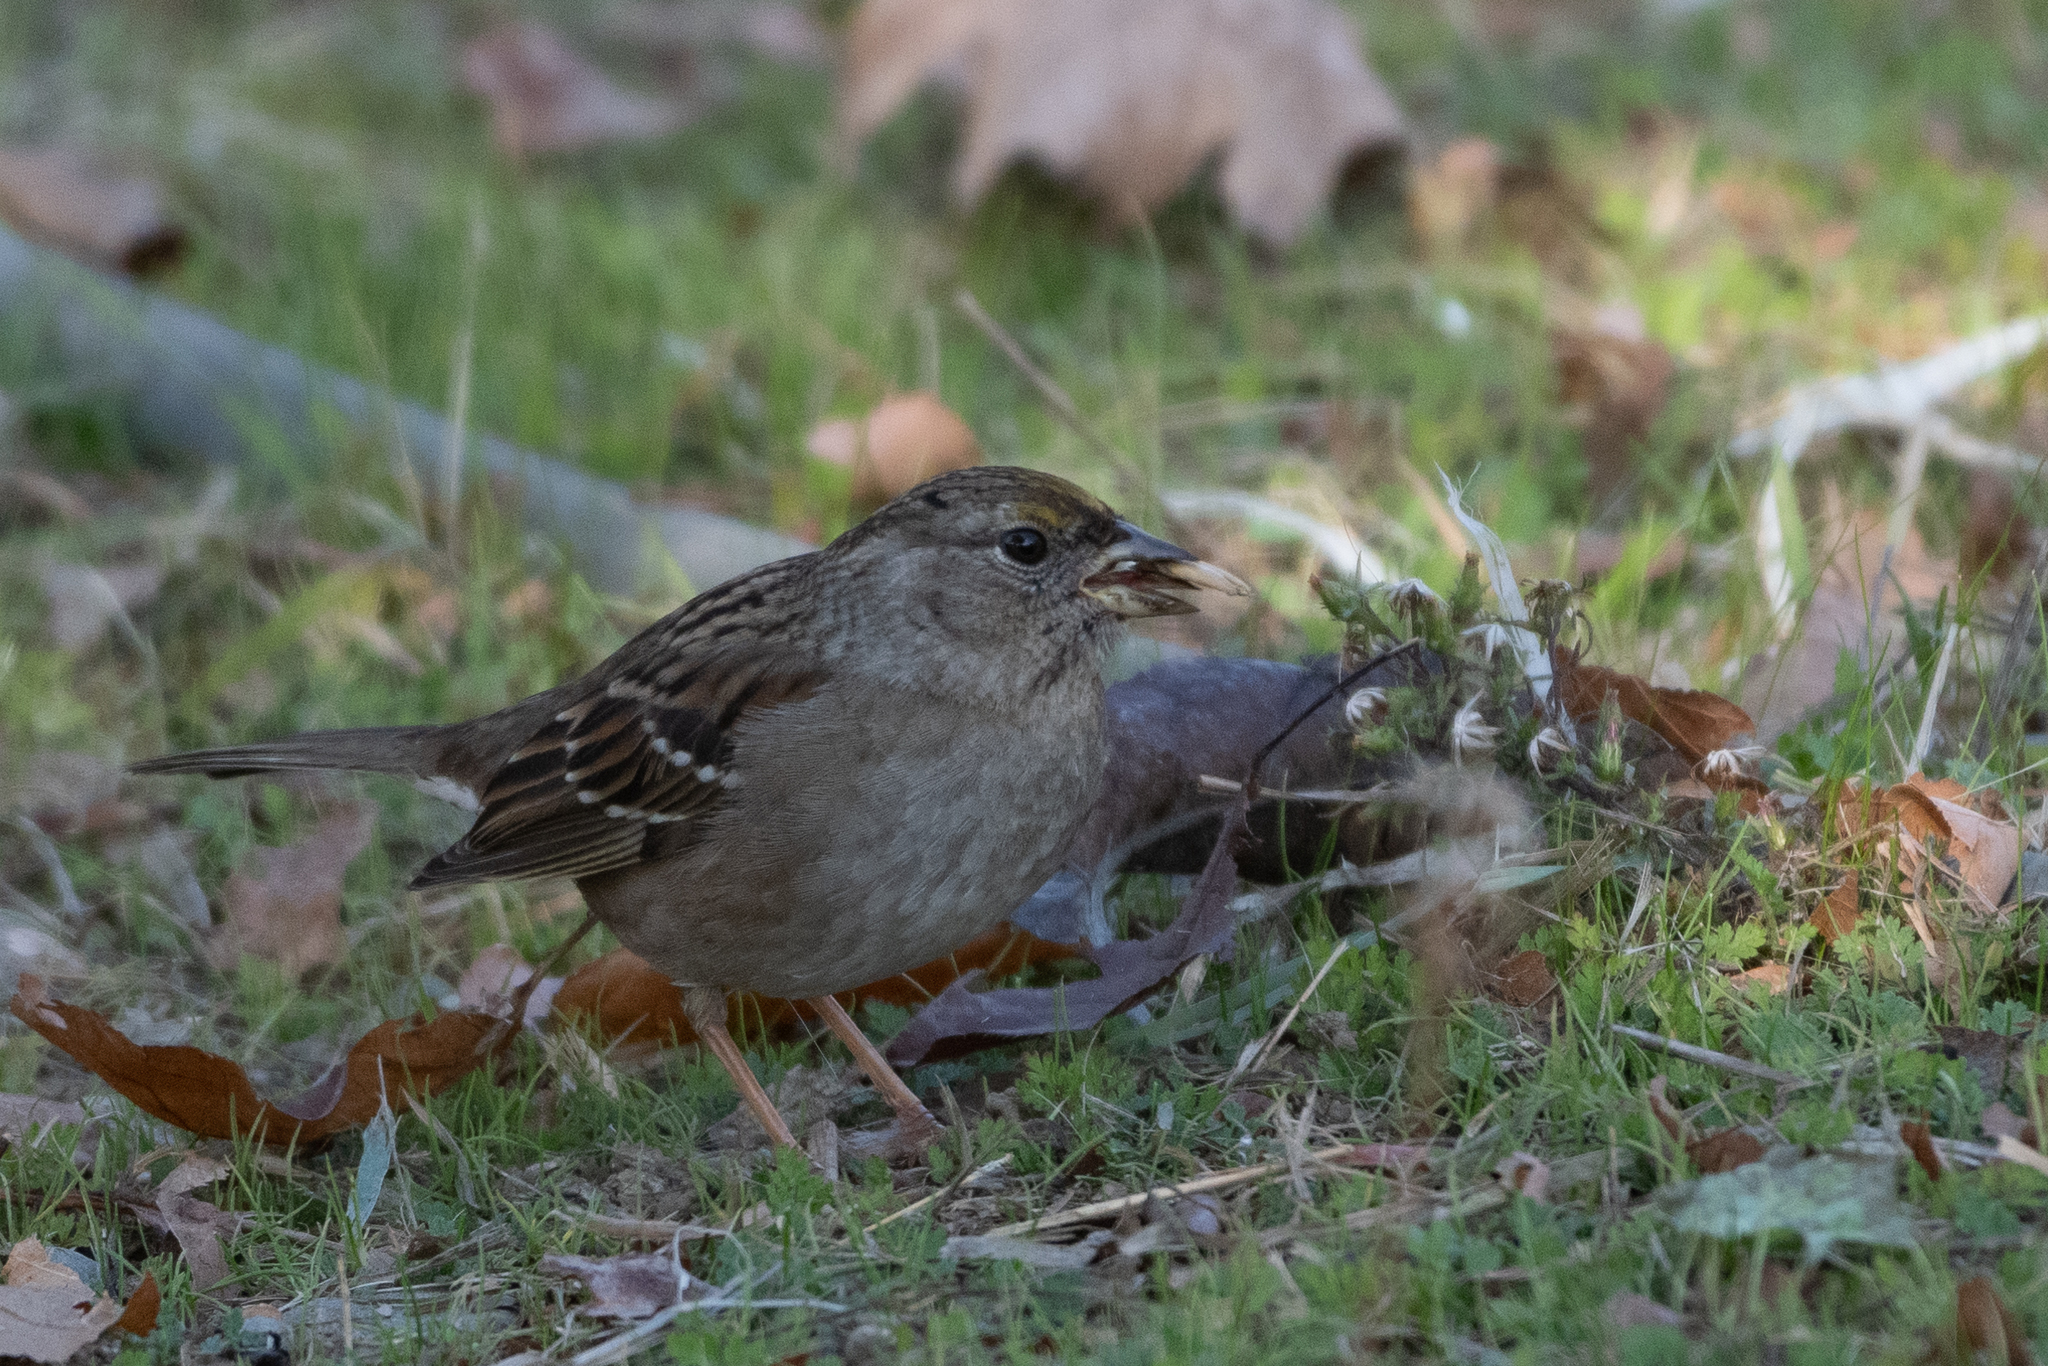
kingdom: Animalia
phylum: Chordata
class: Aves
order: Passeriformes
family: Passerellidae
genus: Zonotrichia
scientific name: Zonotrichia atricapilla
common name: Golden-crowned sparrow
